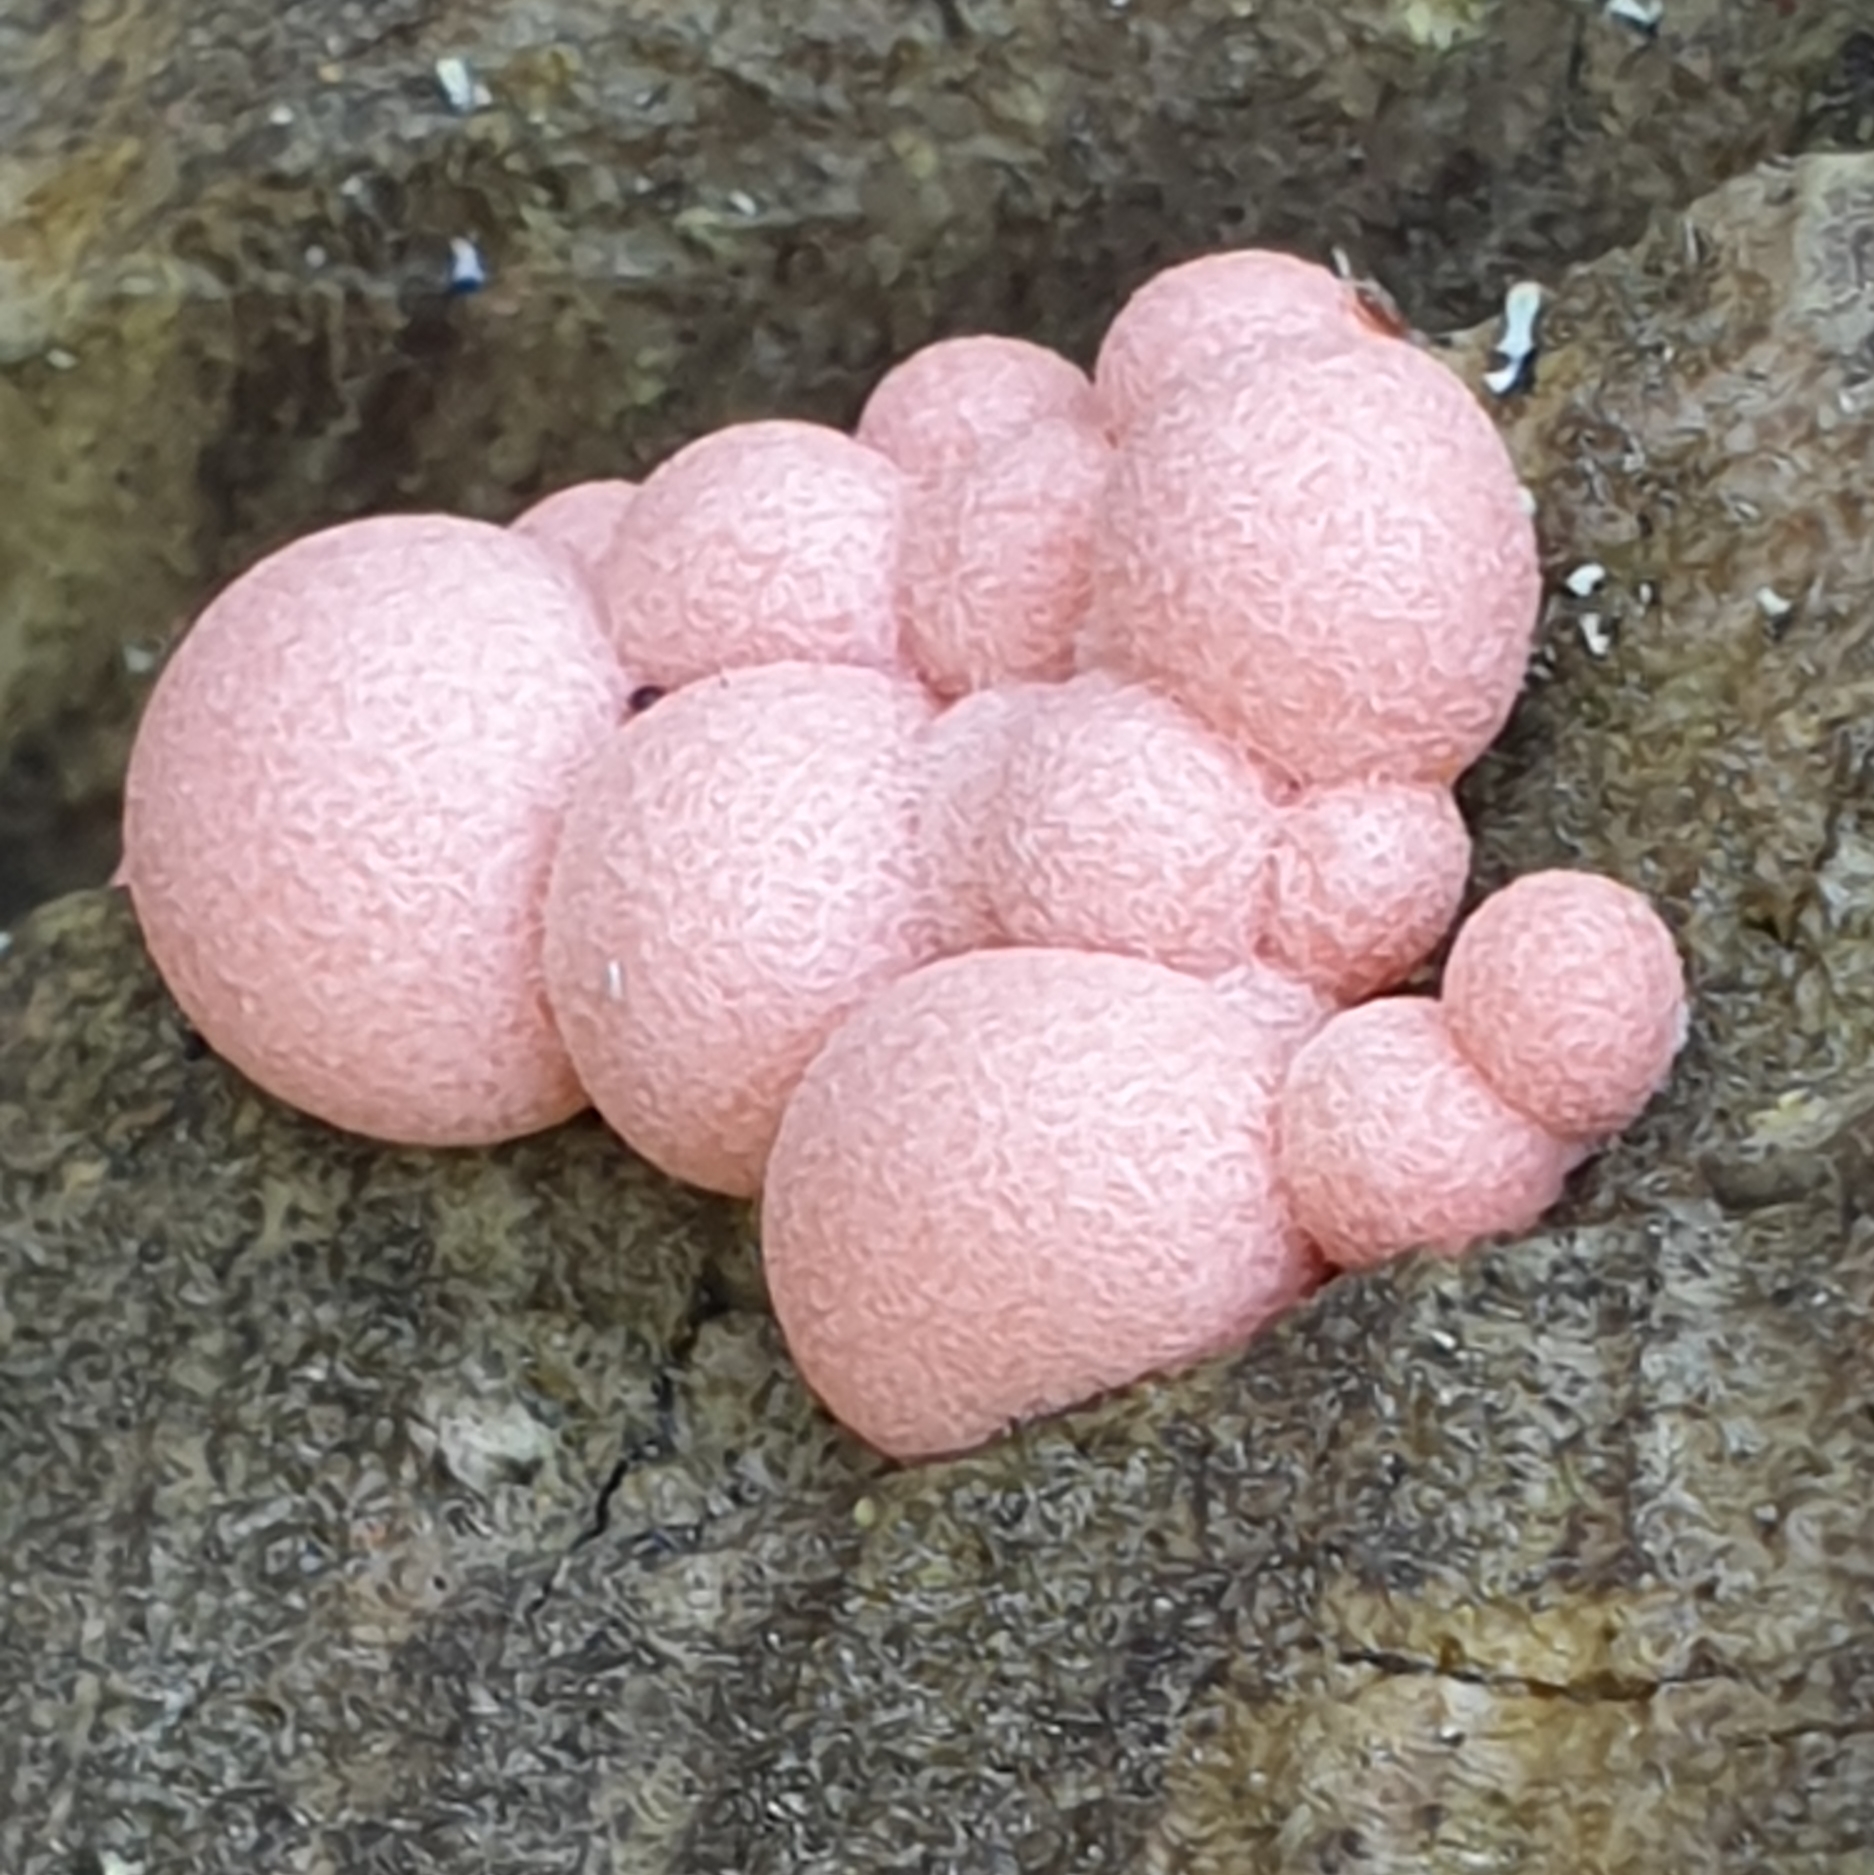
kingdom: Protozoa
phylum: Mycetozoa
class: Myxomycetes
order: Cribrariales
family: Tubiferaceae
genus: Lycogala
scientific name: Lycogala epidendrum
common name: Wolf's milk
